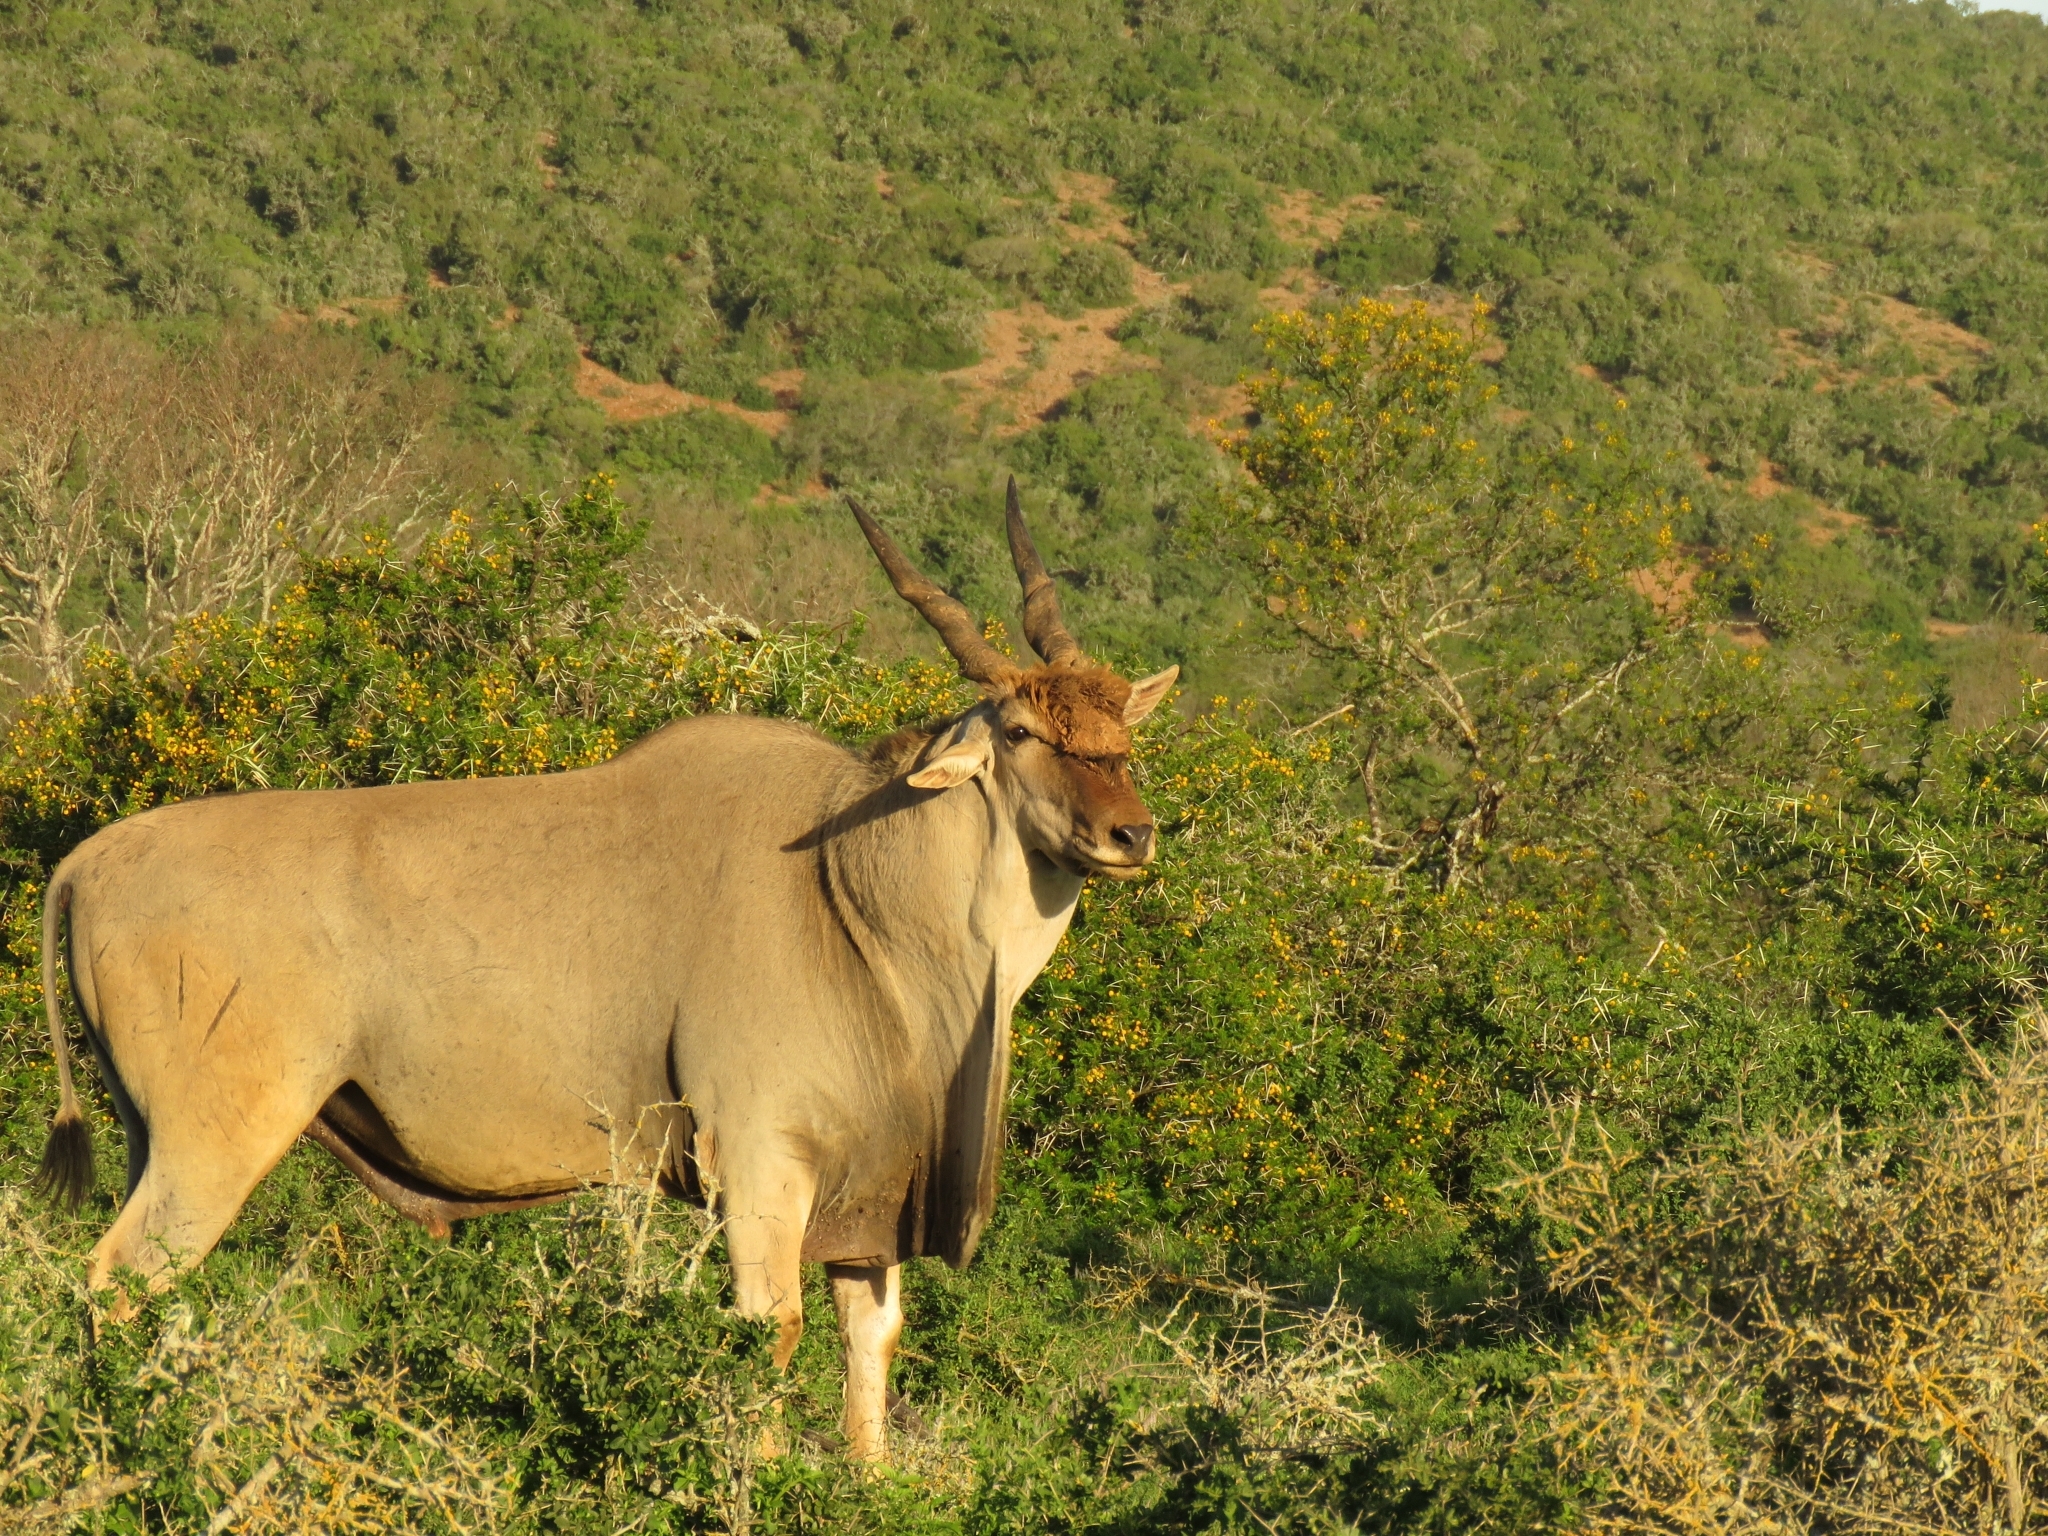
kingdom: Animalia
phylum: Chordata
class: Mammalia
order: Artiodactyla
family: Bovidae
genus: Taurotragus
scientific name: Taurotragus oryx
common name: Common eland
